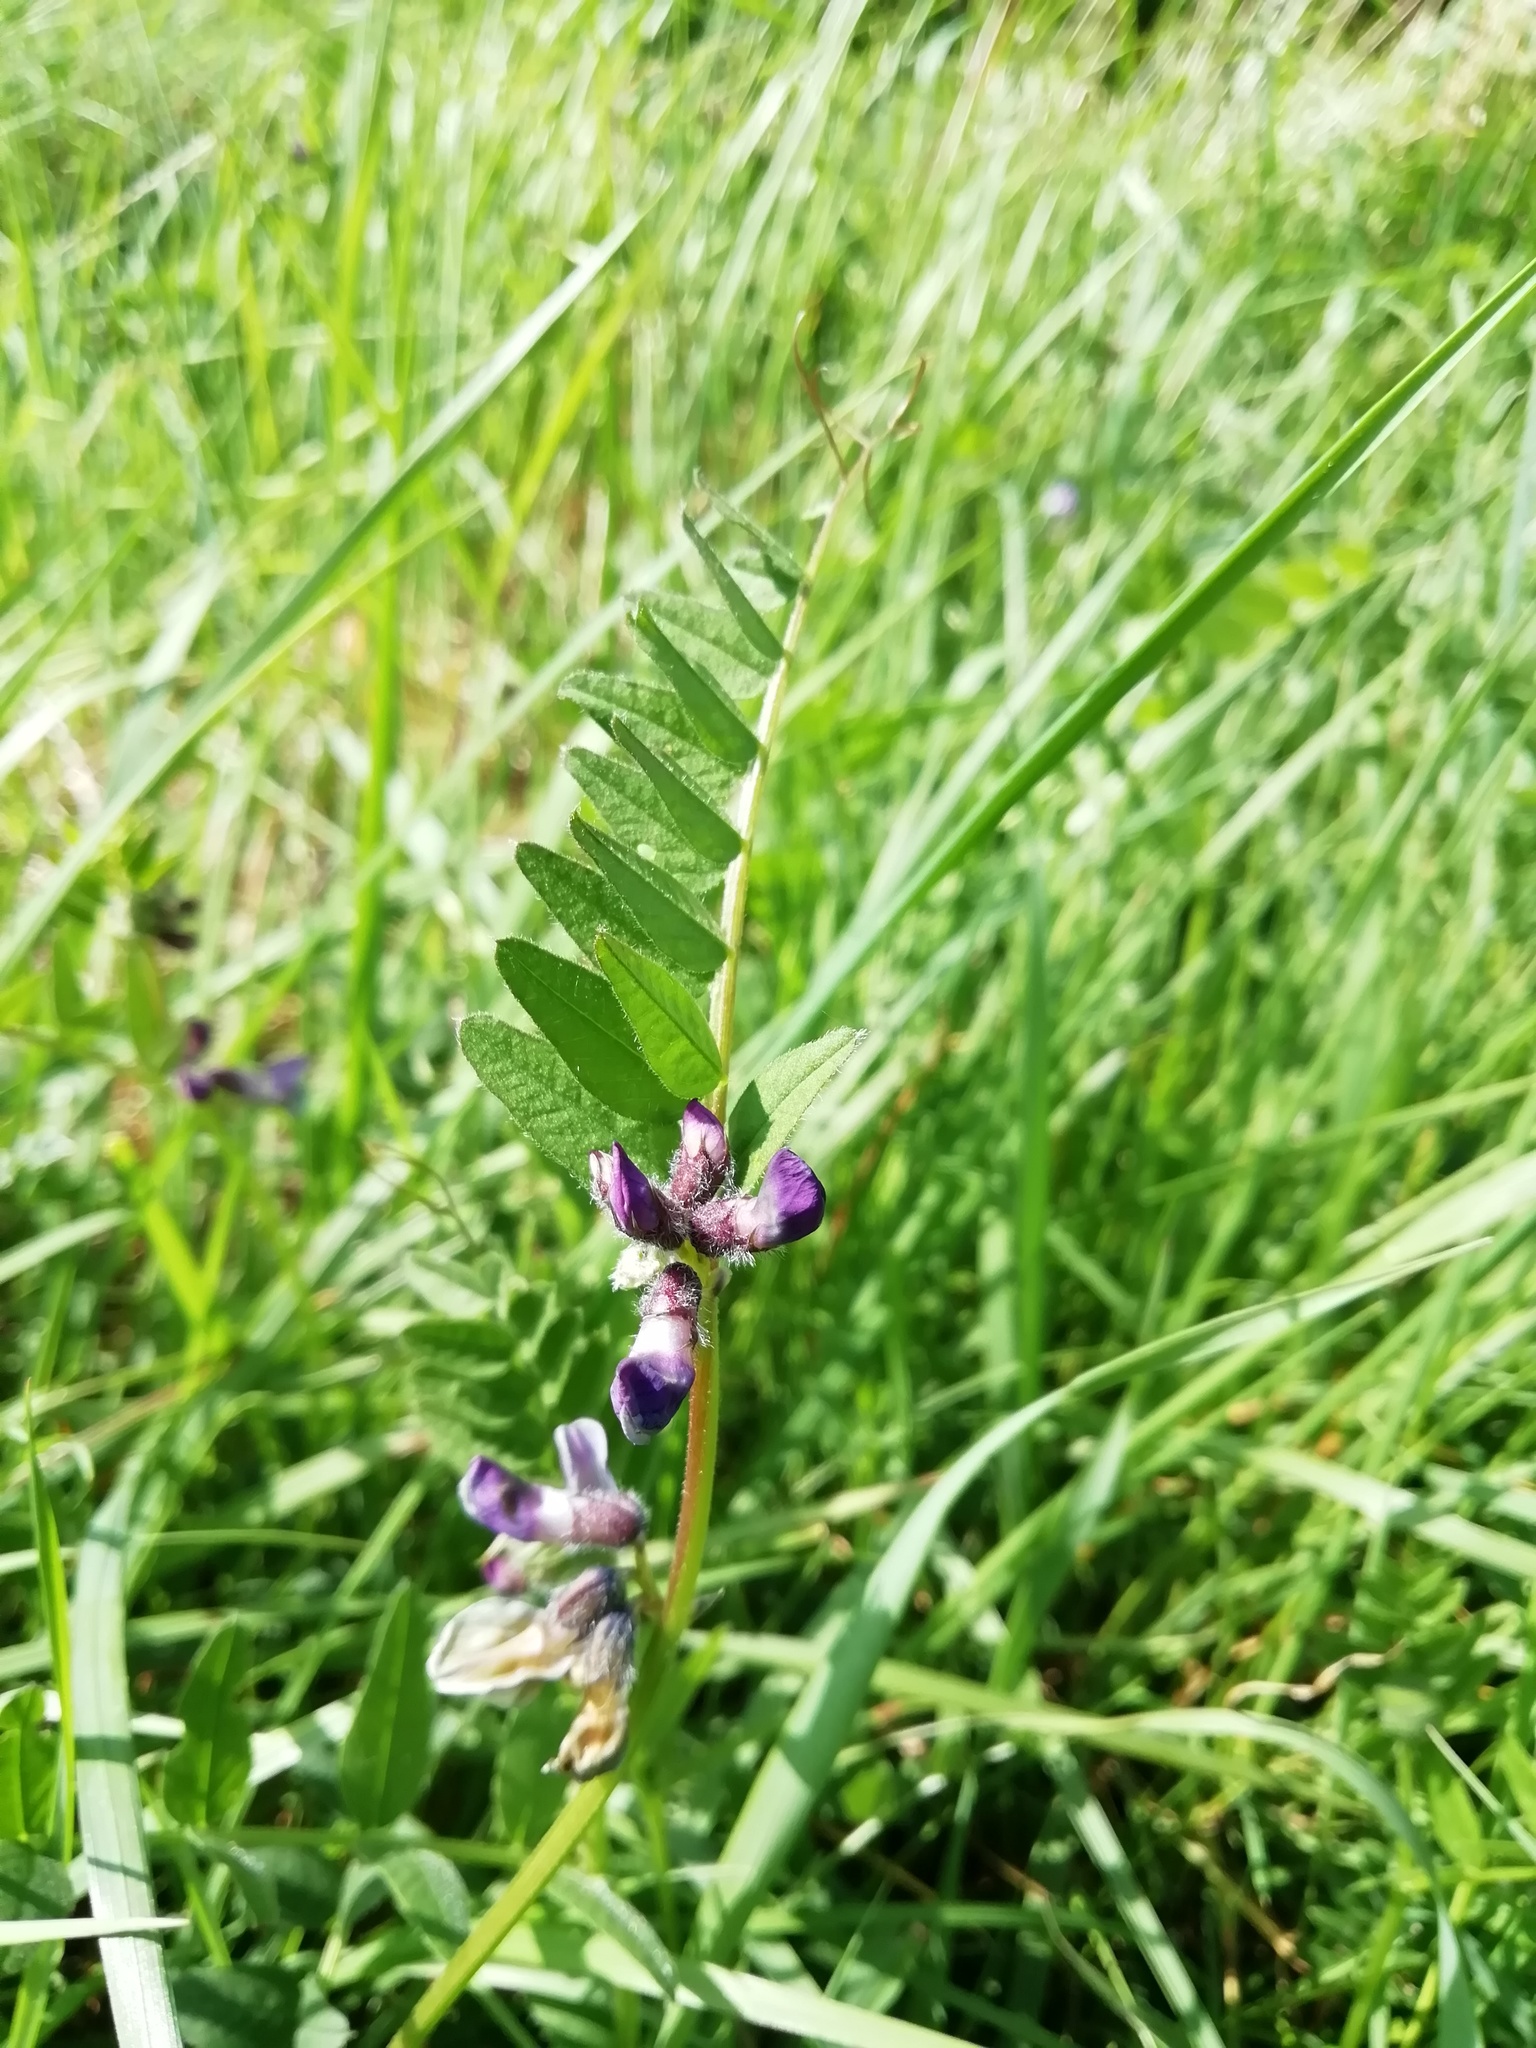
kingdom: Plantae
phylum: Tracheophyta
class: Magnoliopsida
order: Fabales
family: Fabaceae
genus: Vicia
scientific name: Vicia sepium
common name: Bush vetch
